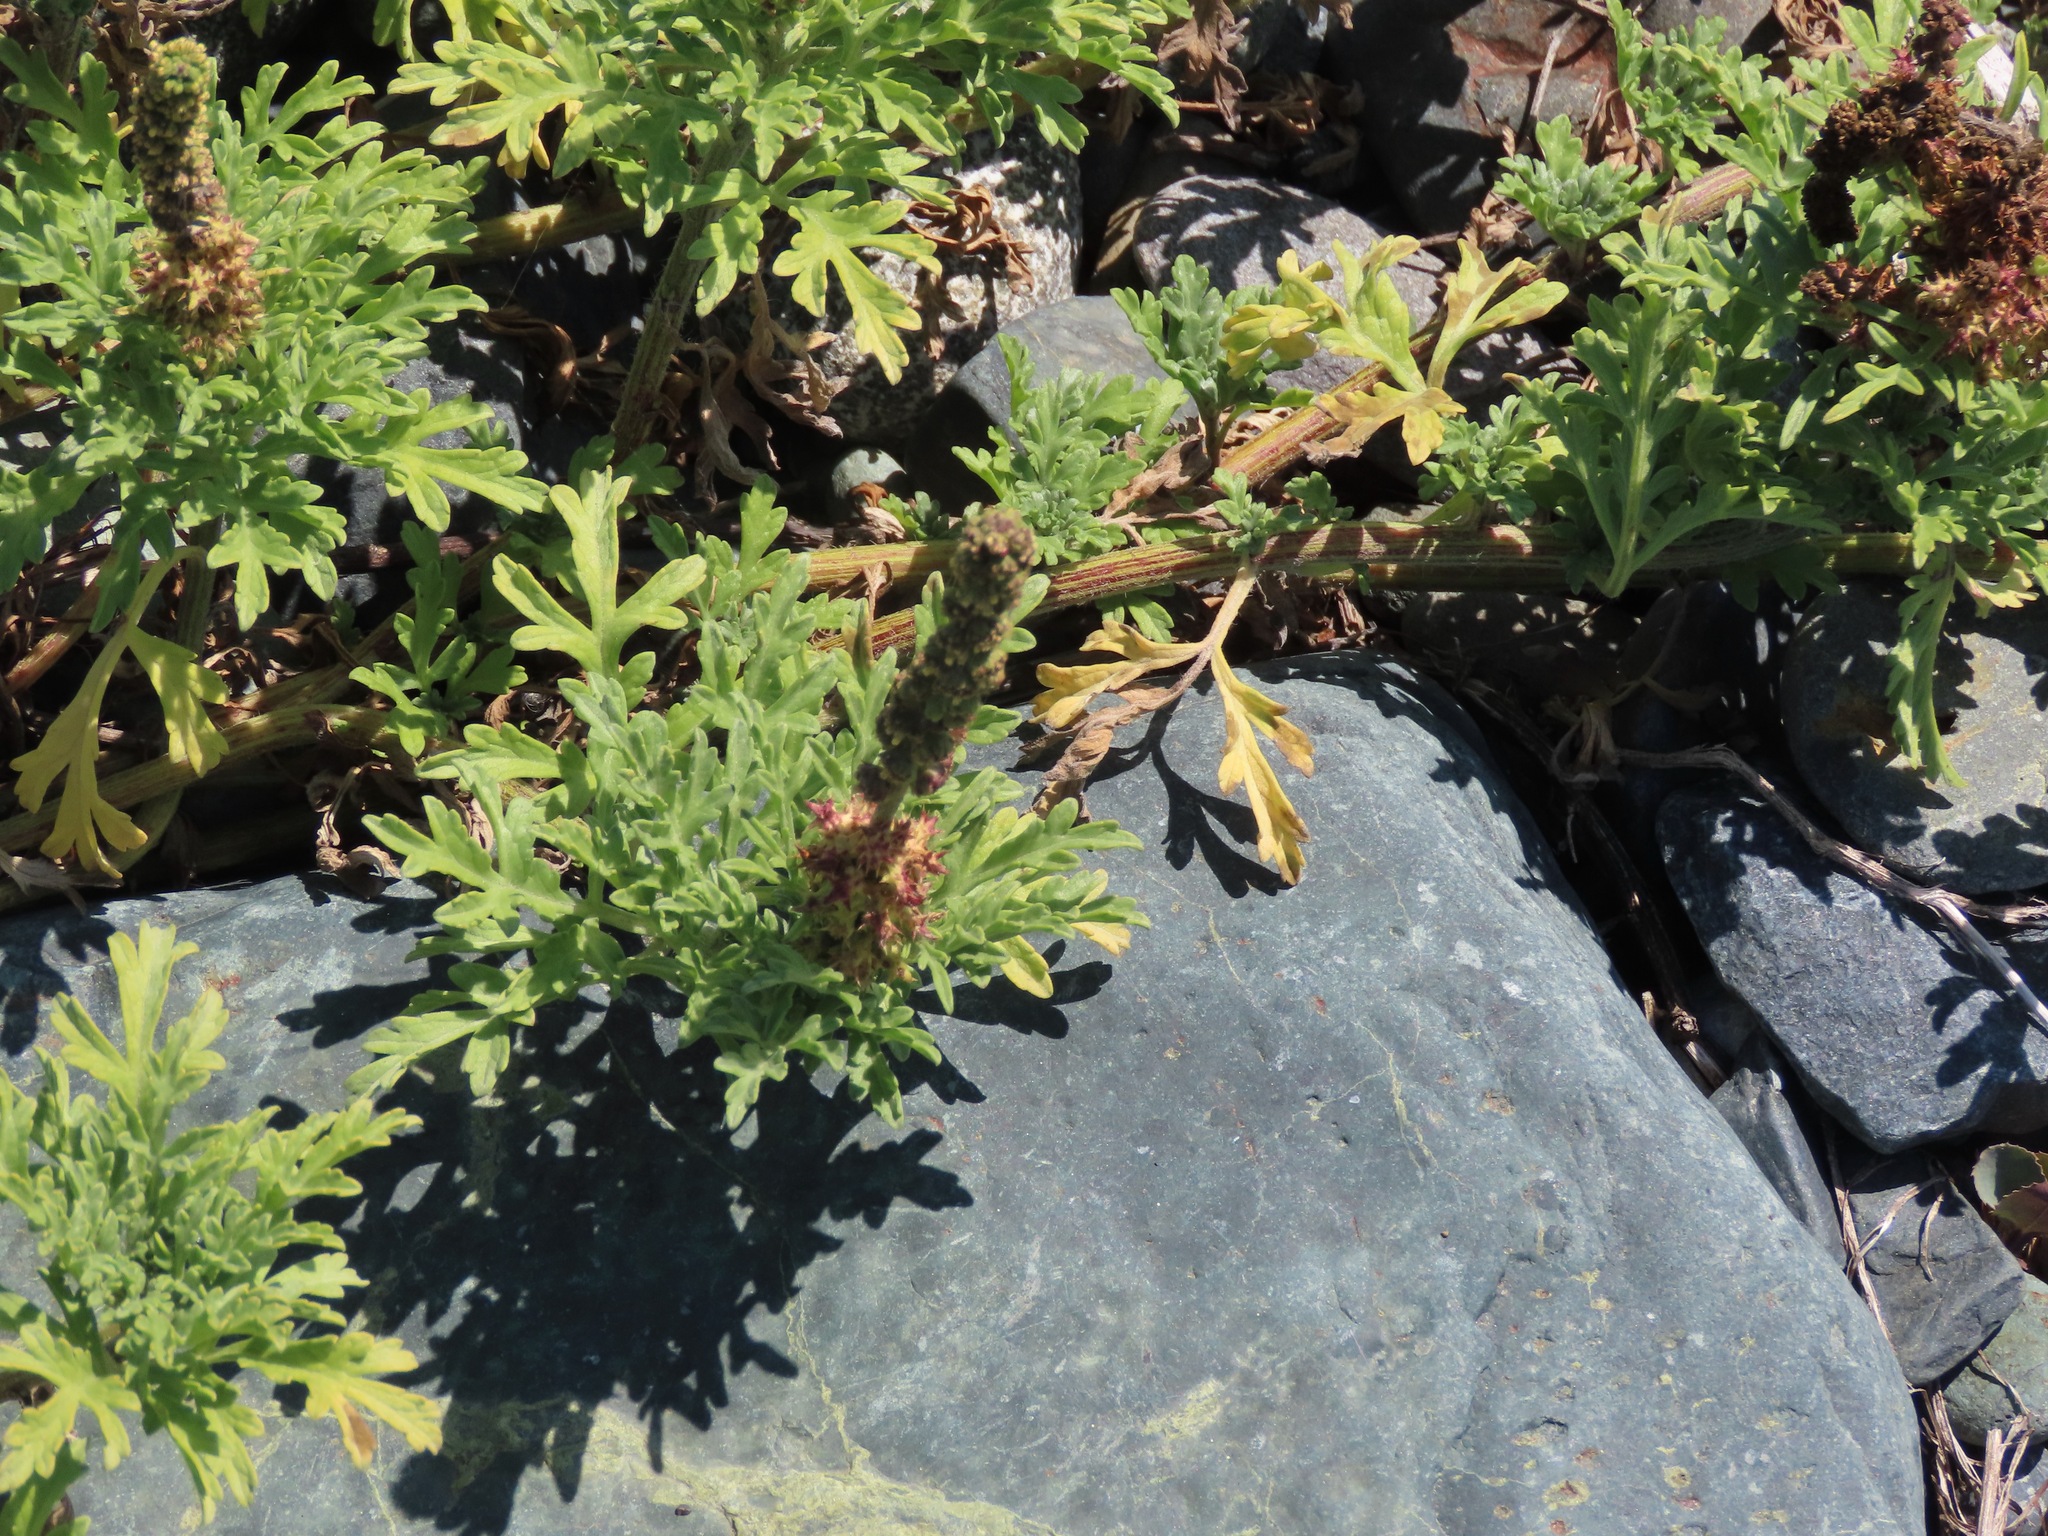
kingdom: Plantae
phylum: Tracheophyta
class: Magnoliopsida
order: Asterales
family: Asteraceae
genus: Ambrosia
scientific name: Ambrosia chamissonis
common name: Beachbur
